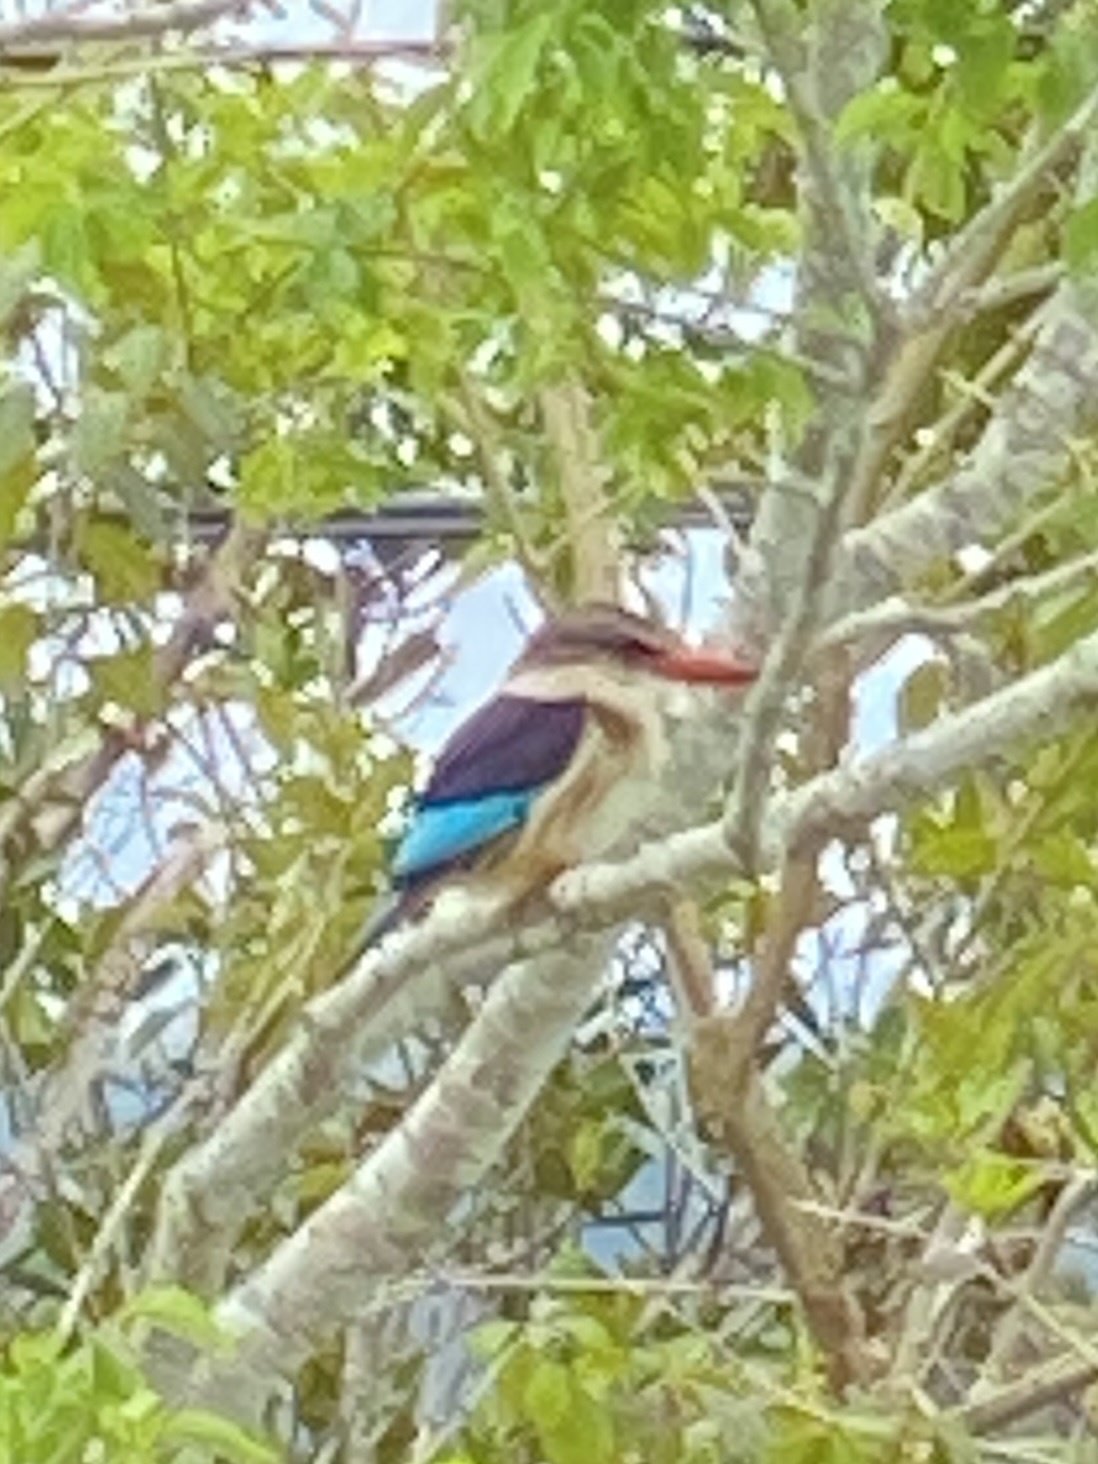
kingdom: Animalia
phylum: Chordata
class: Aves
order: Coraciiformes
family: Alcedinidae
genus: Halcyon
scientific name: Halcyon albiventris
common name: Brown-hooded kingfisher
